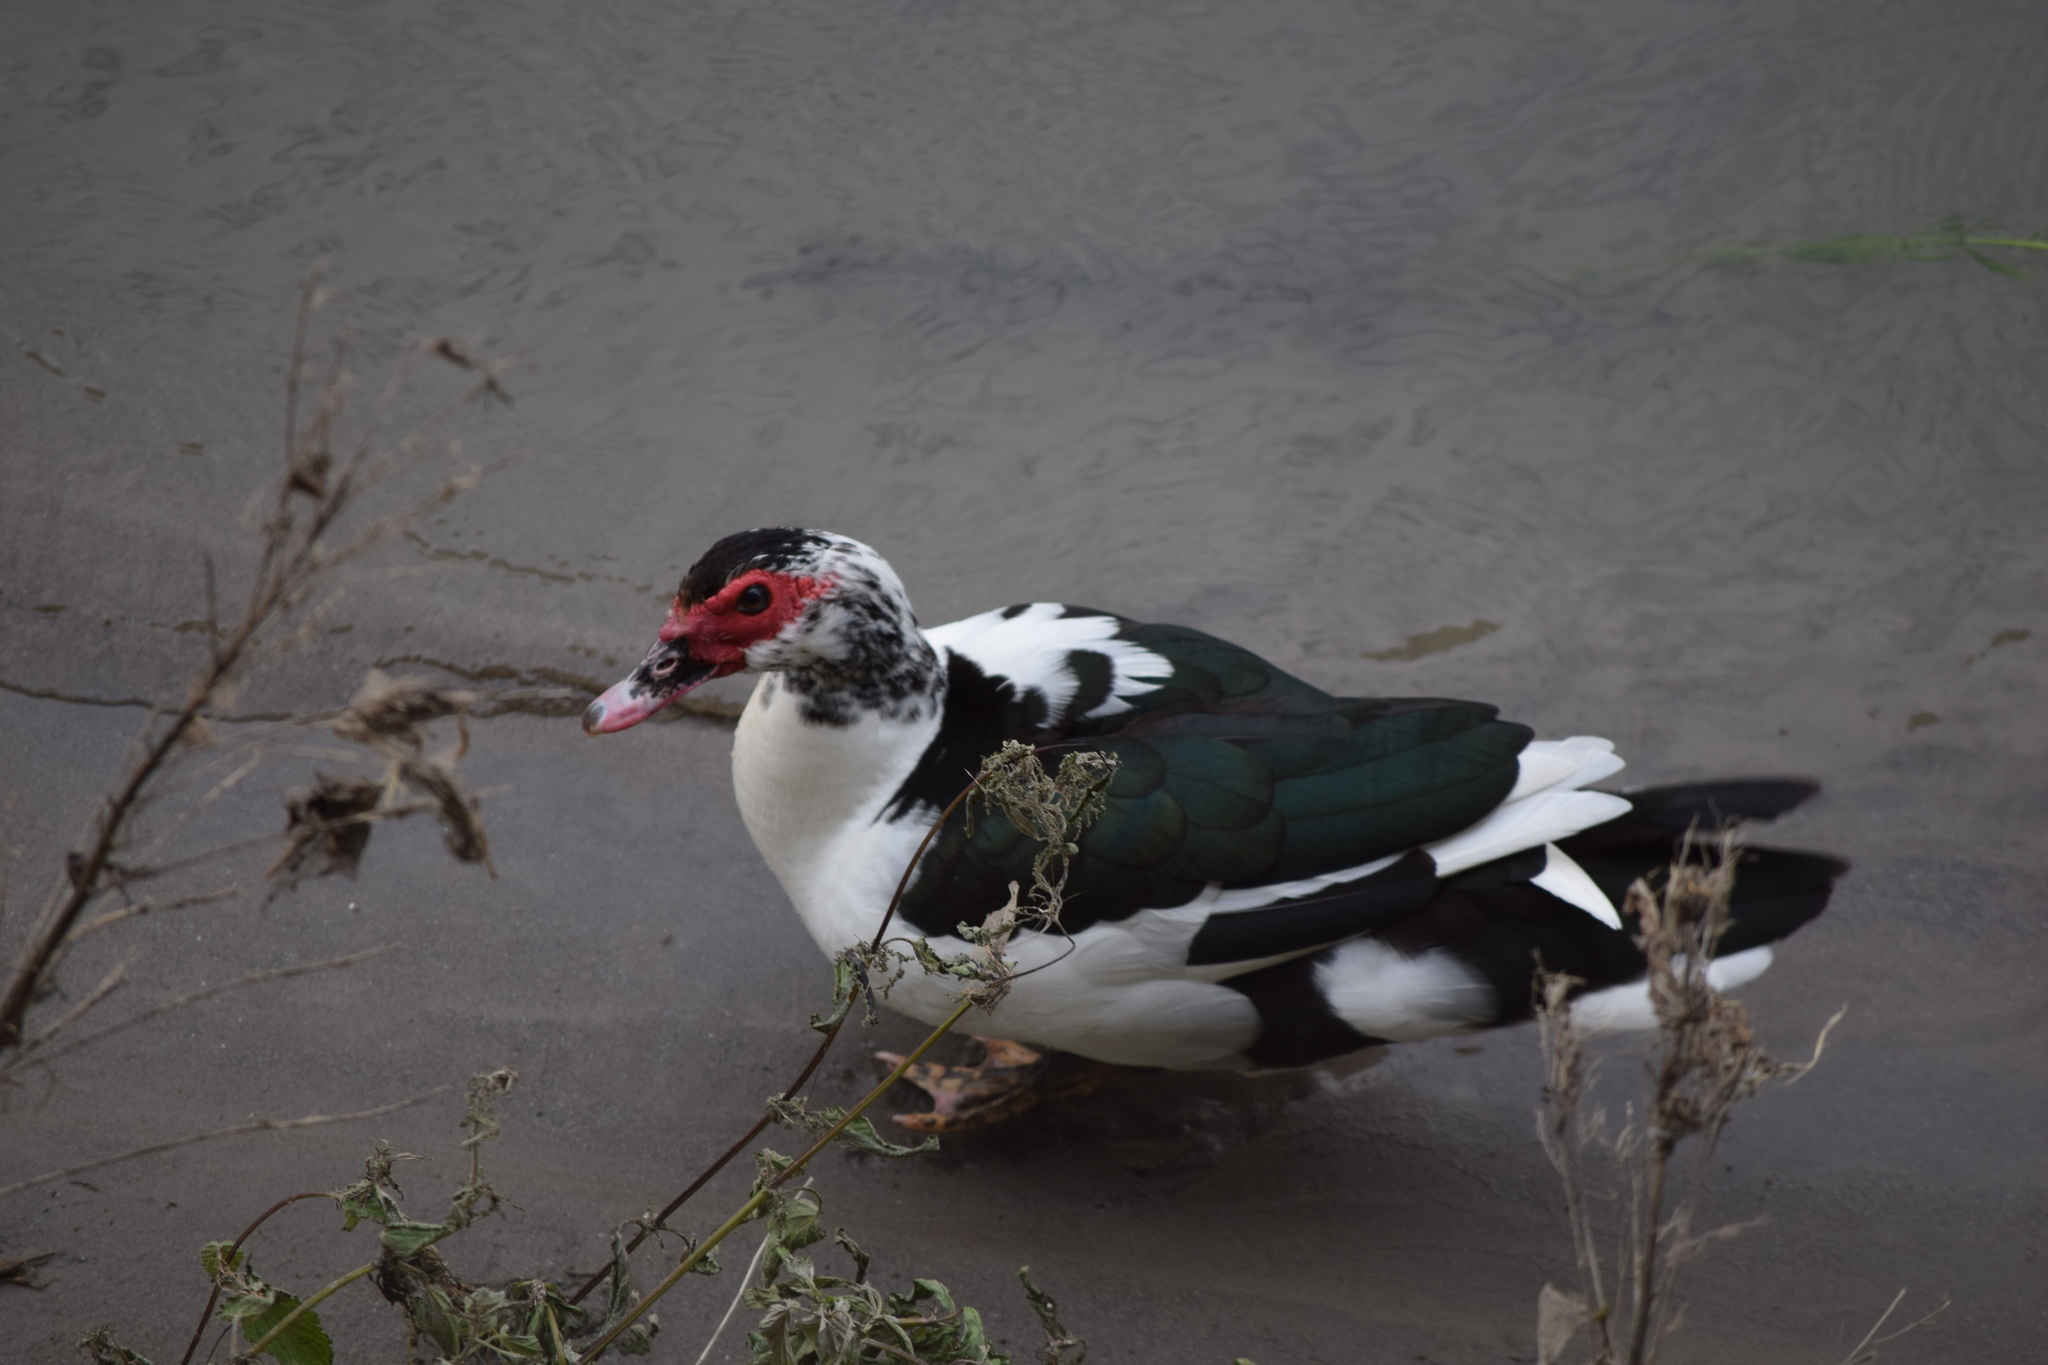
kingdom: Animalia
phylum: Chordata
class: Aves
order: Anseriformes
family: Anatidae
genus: Cairina
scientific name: Cairina moschata
